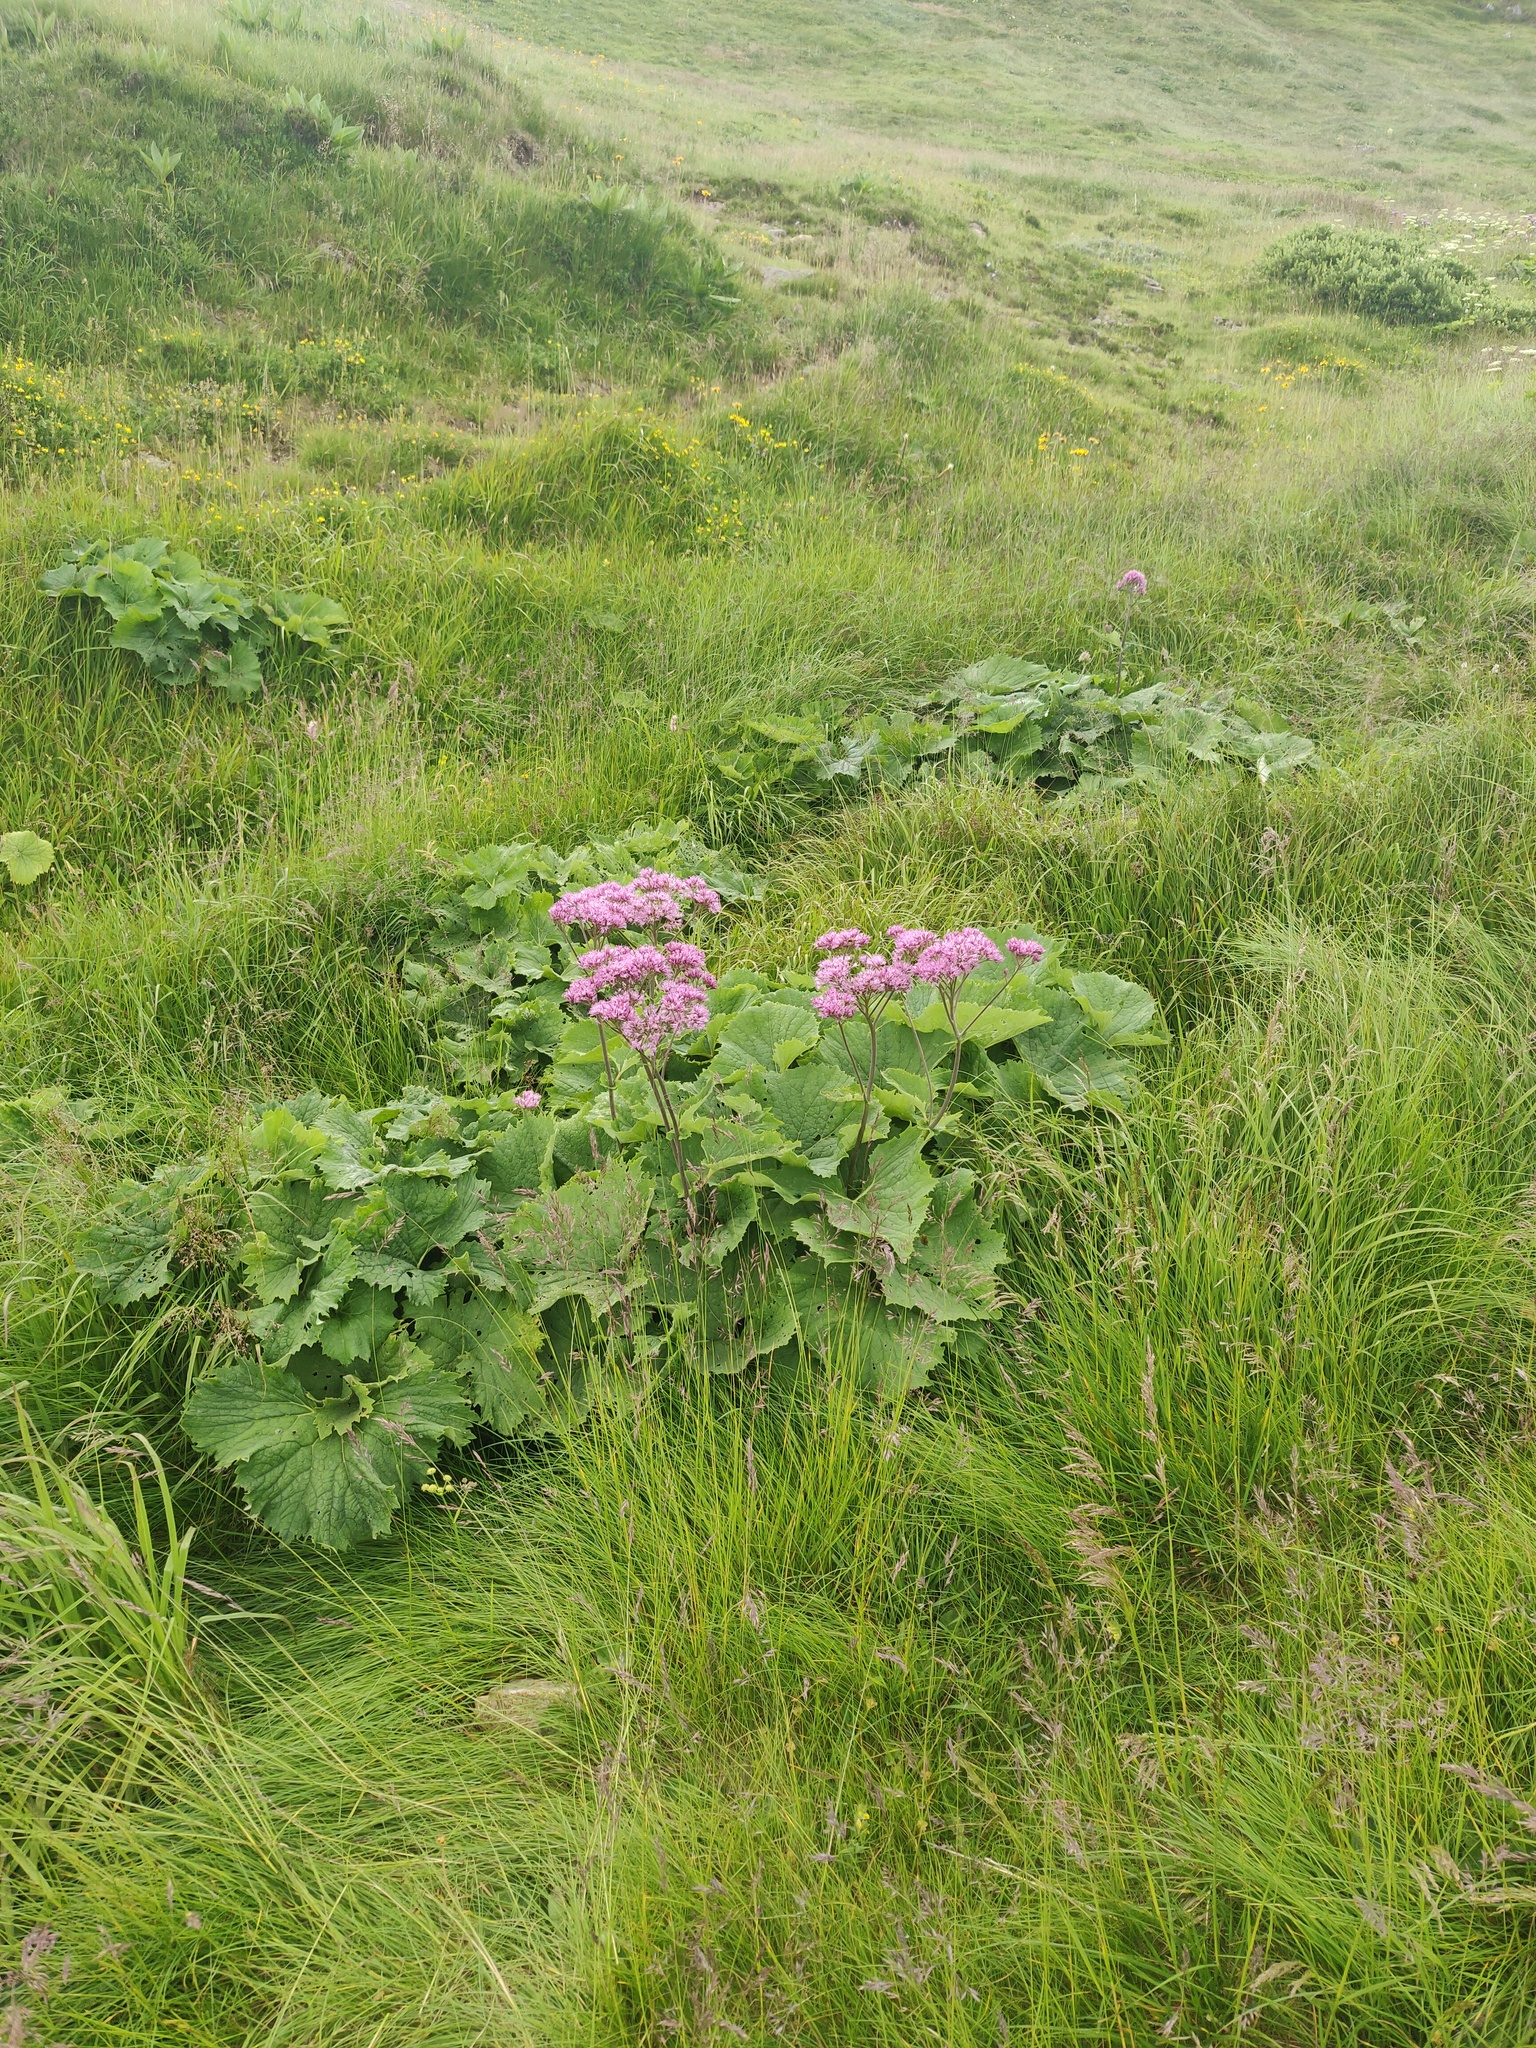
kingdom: Plantae
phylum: Tracheophyta
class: Magnoliopsida
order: Asterales
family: Asteraceae
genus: Adenostyles
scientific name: Adenostyles alliariae
